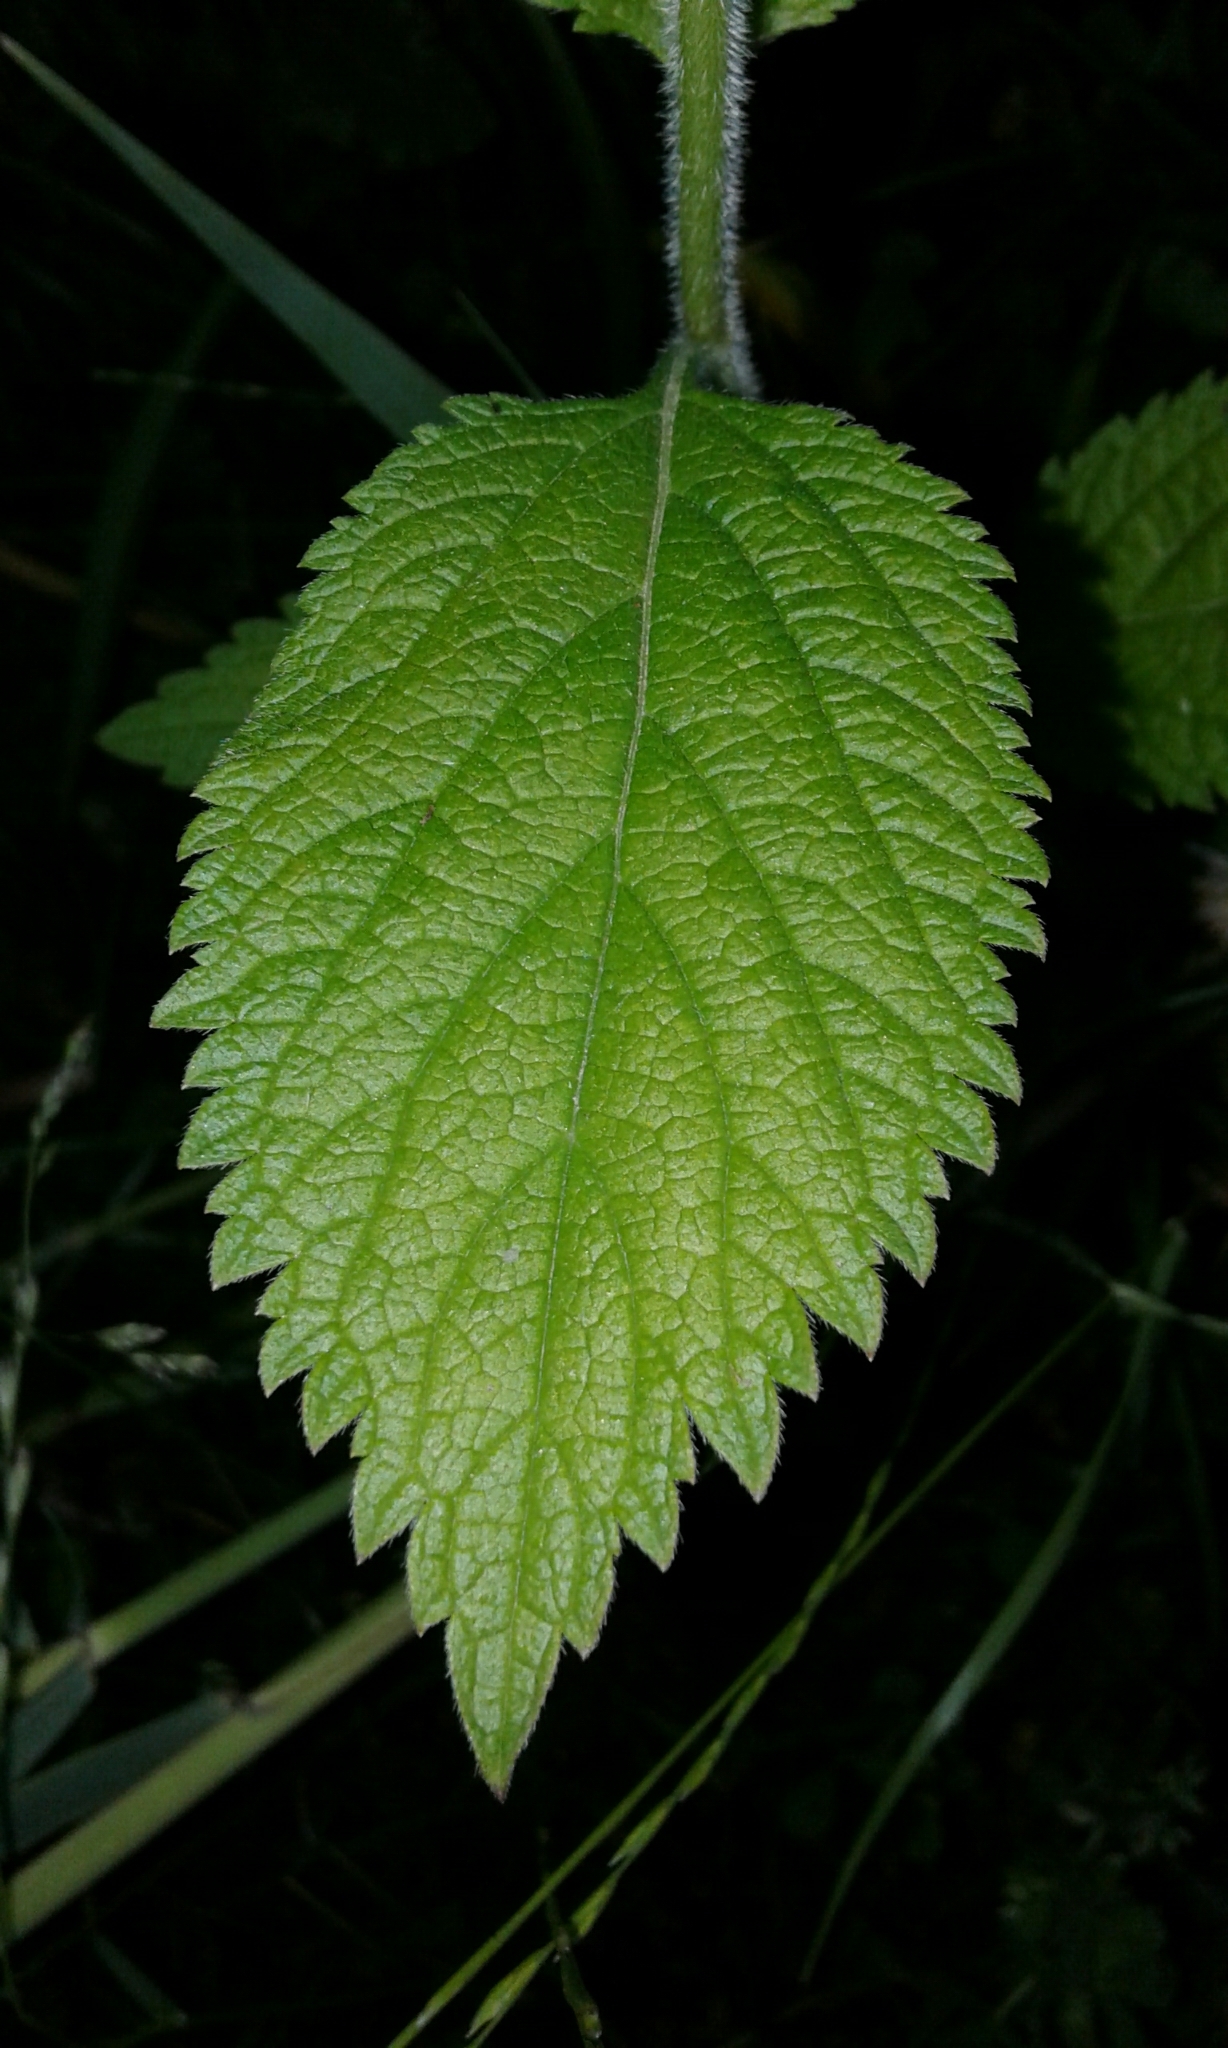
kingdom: Plantae
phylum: Tracheophyta
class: Magnoliopsida
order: Lamiales
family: Verbenaceae
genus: Verbena
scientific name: Verbena urticifolia
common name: Nettle-leaved vervain
